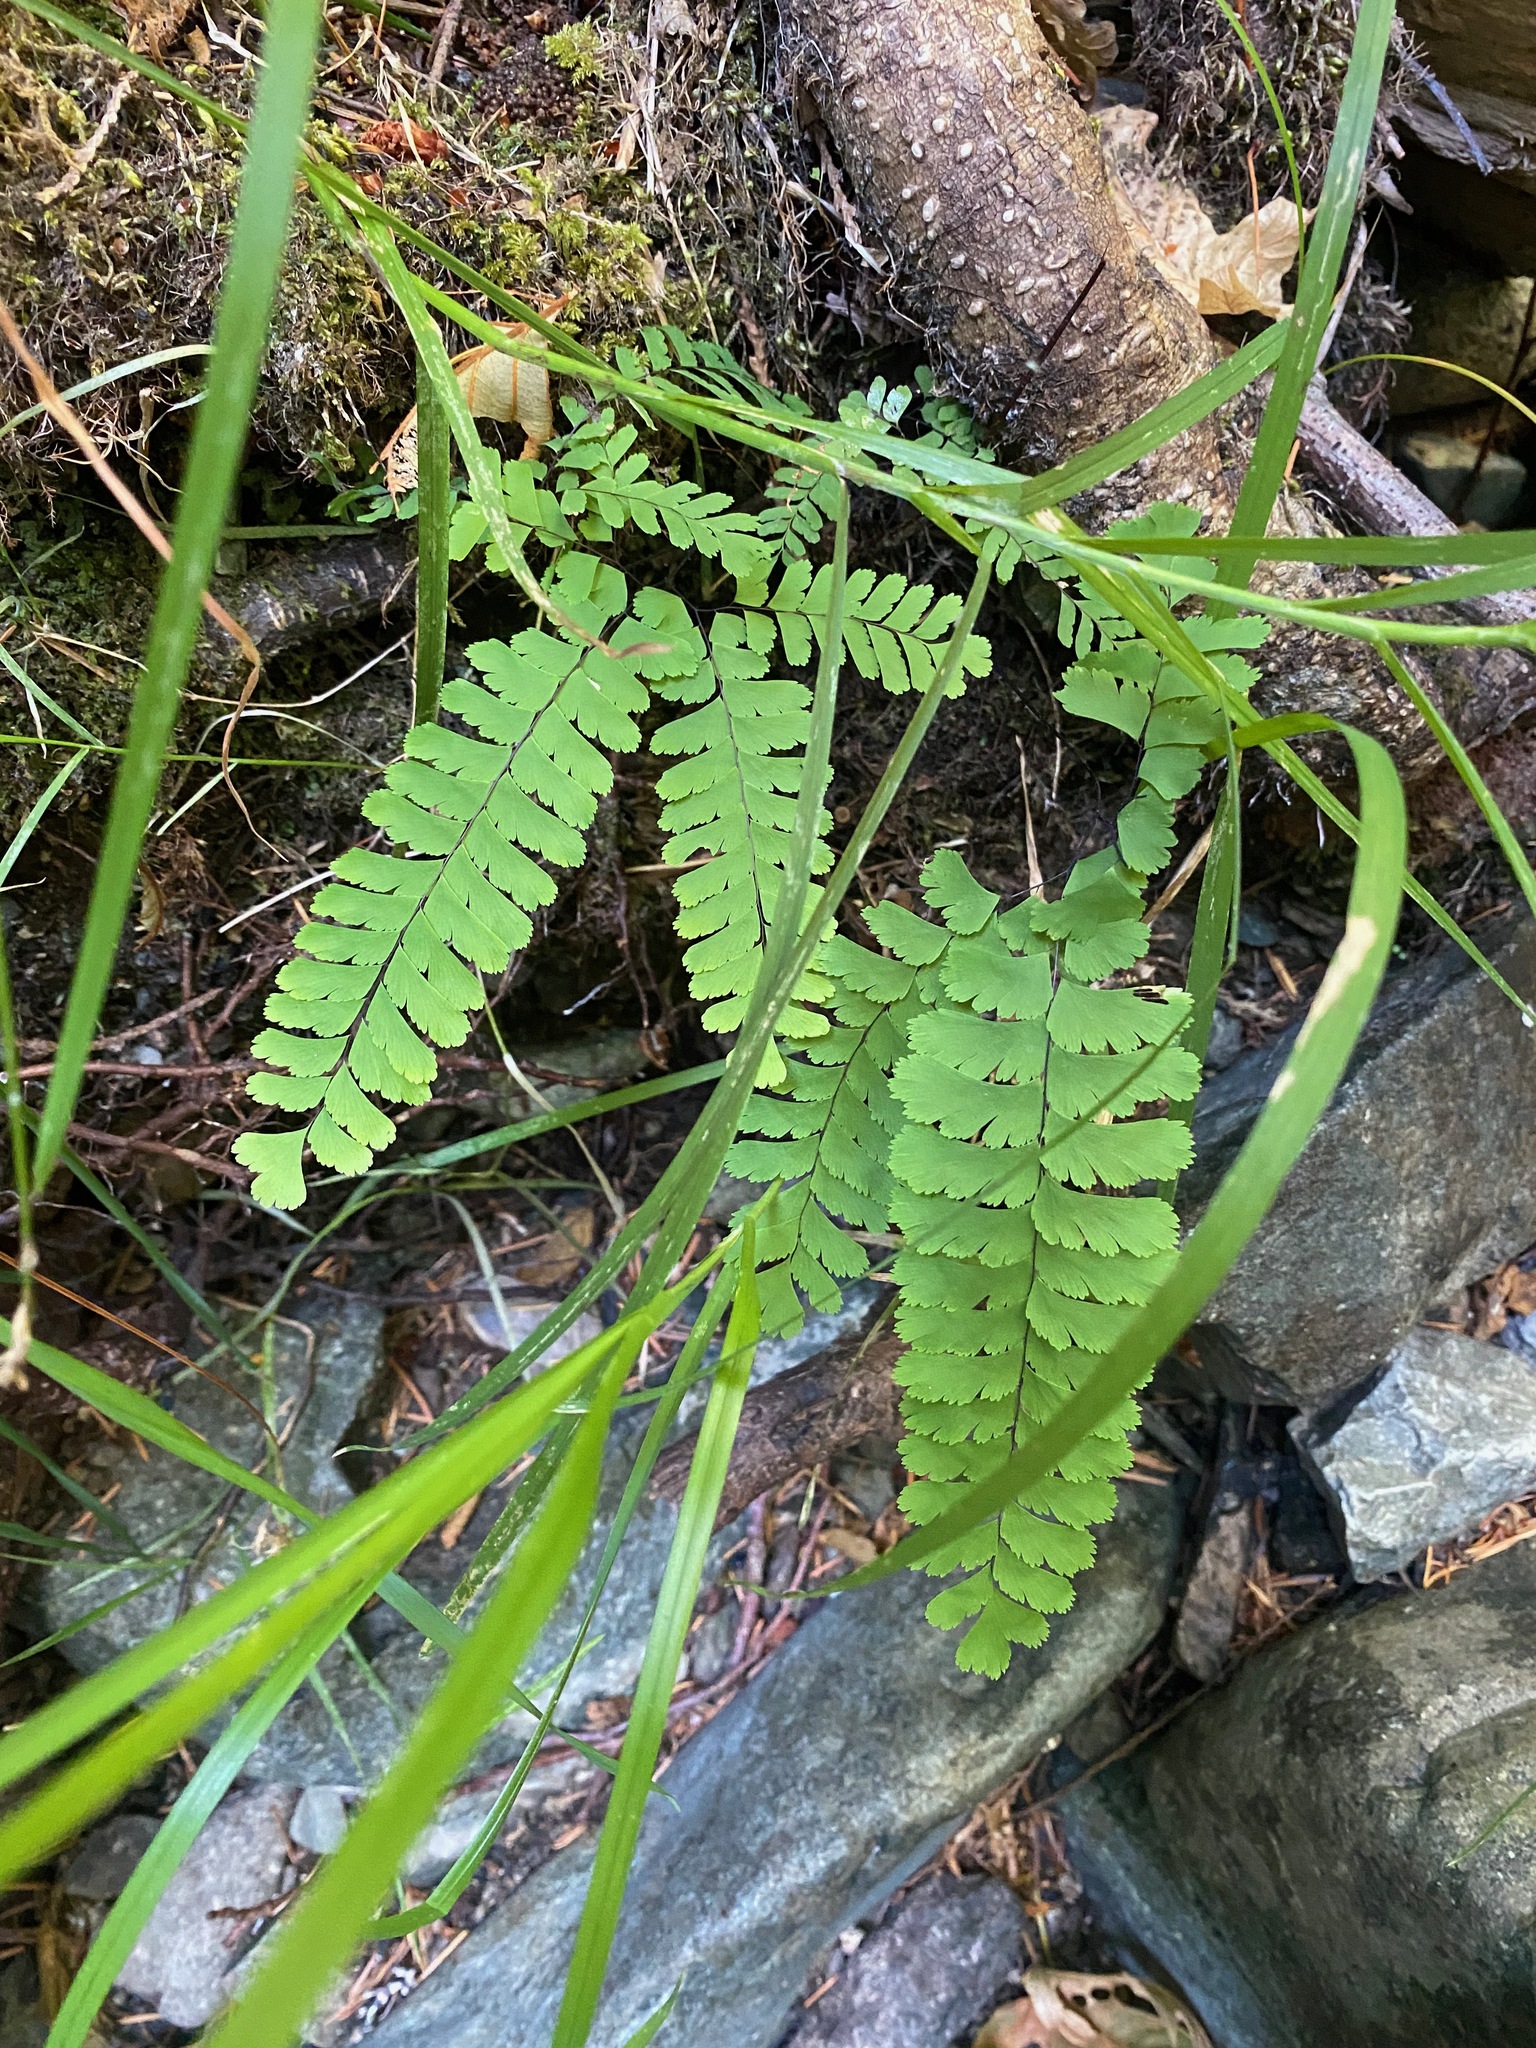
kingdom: Plantae
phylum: Tracheophyta
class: Polypodiopsida
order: Polypodiales
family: Pteridaceae
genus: Adiantum
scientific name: Adiantum aleuticum
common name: Aleutian maidenhair fern
